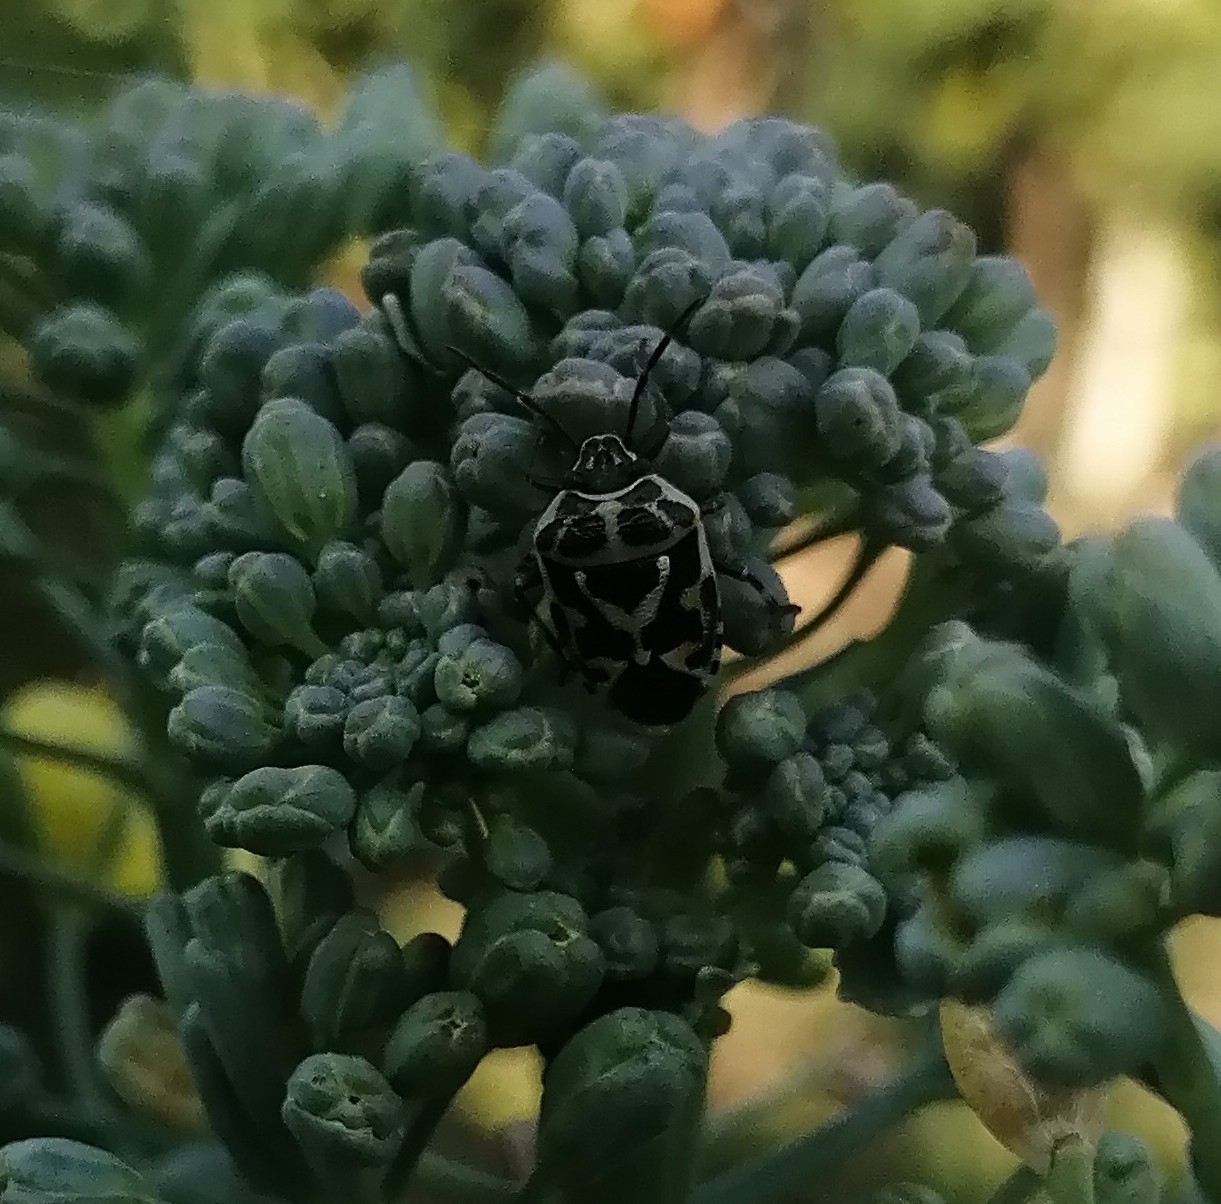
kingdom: Animalia
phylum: Arthropoda
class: Insecta
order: Hemiptera
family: Pentatomidae
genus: Eurydema
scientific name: Eurydema ornata
